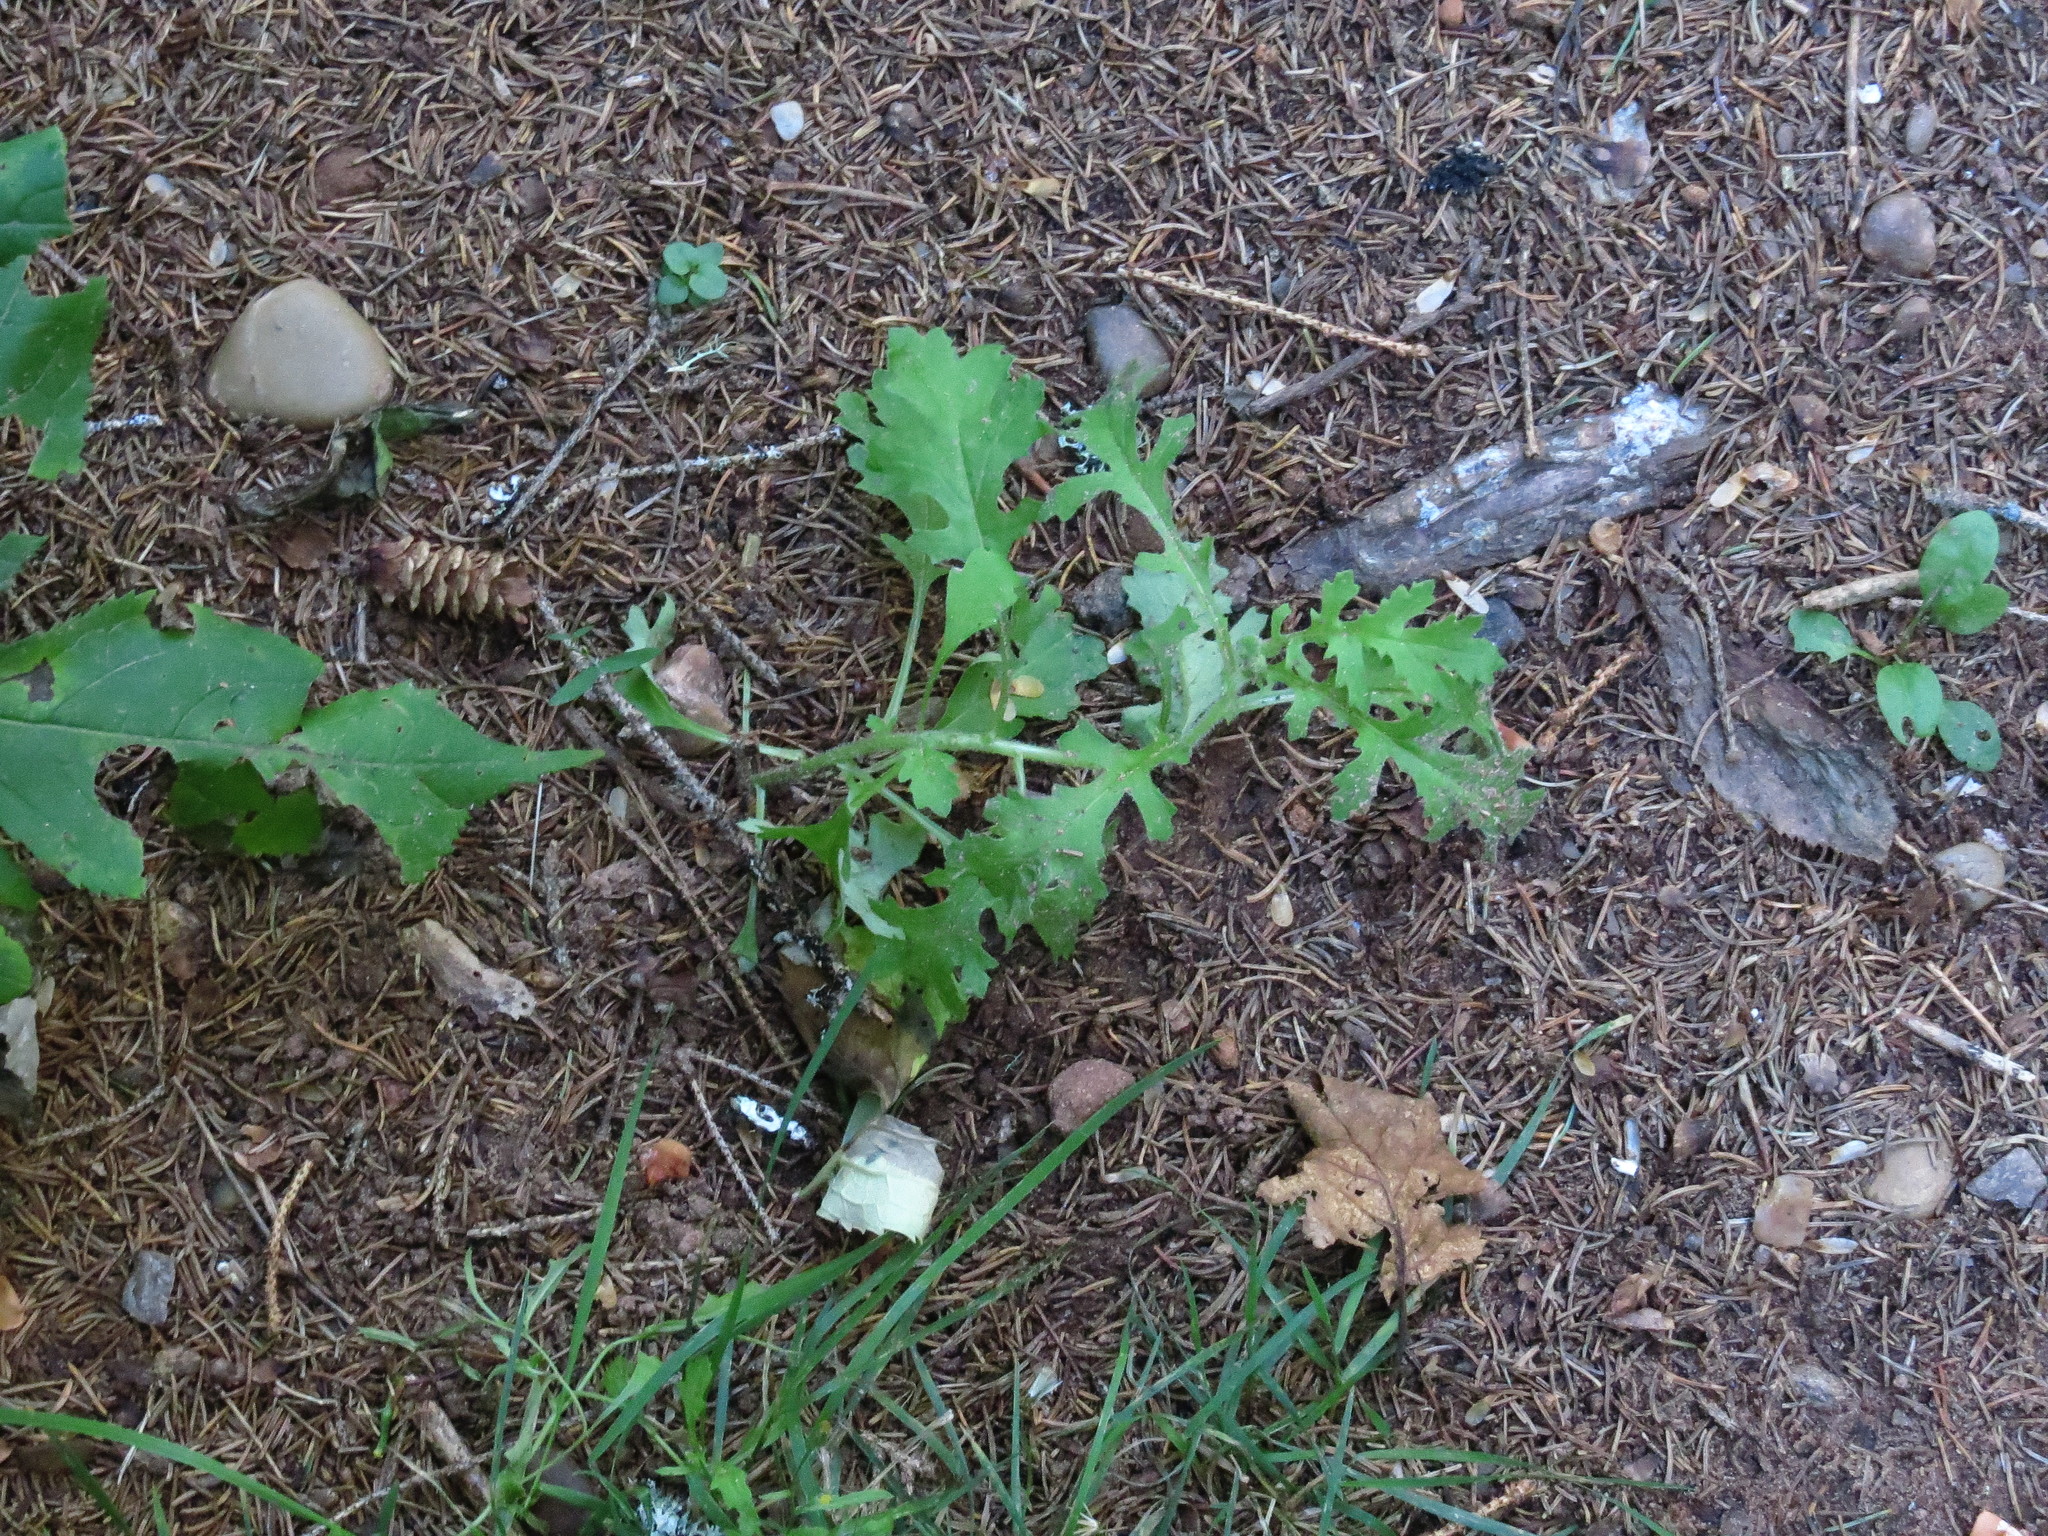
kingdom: Plantae
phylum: Tracheophyta
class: Magnoliopsida
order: Asterales
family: Asteraceae
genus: Jacobaea
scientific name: Jacobaea vulgaris
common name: Stinking willie
